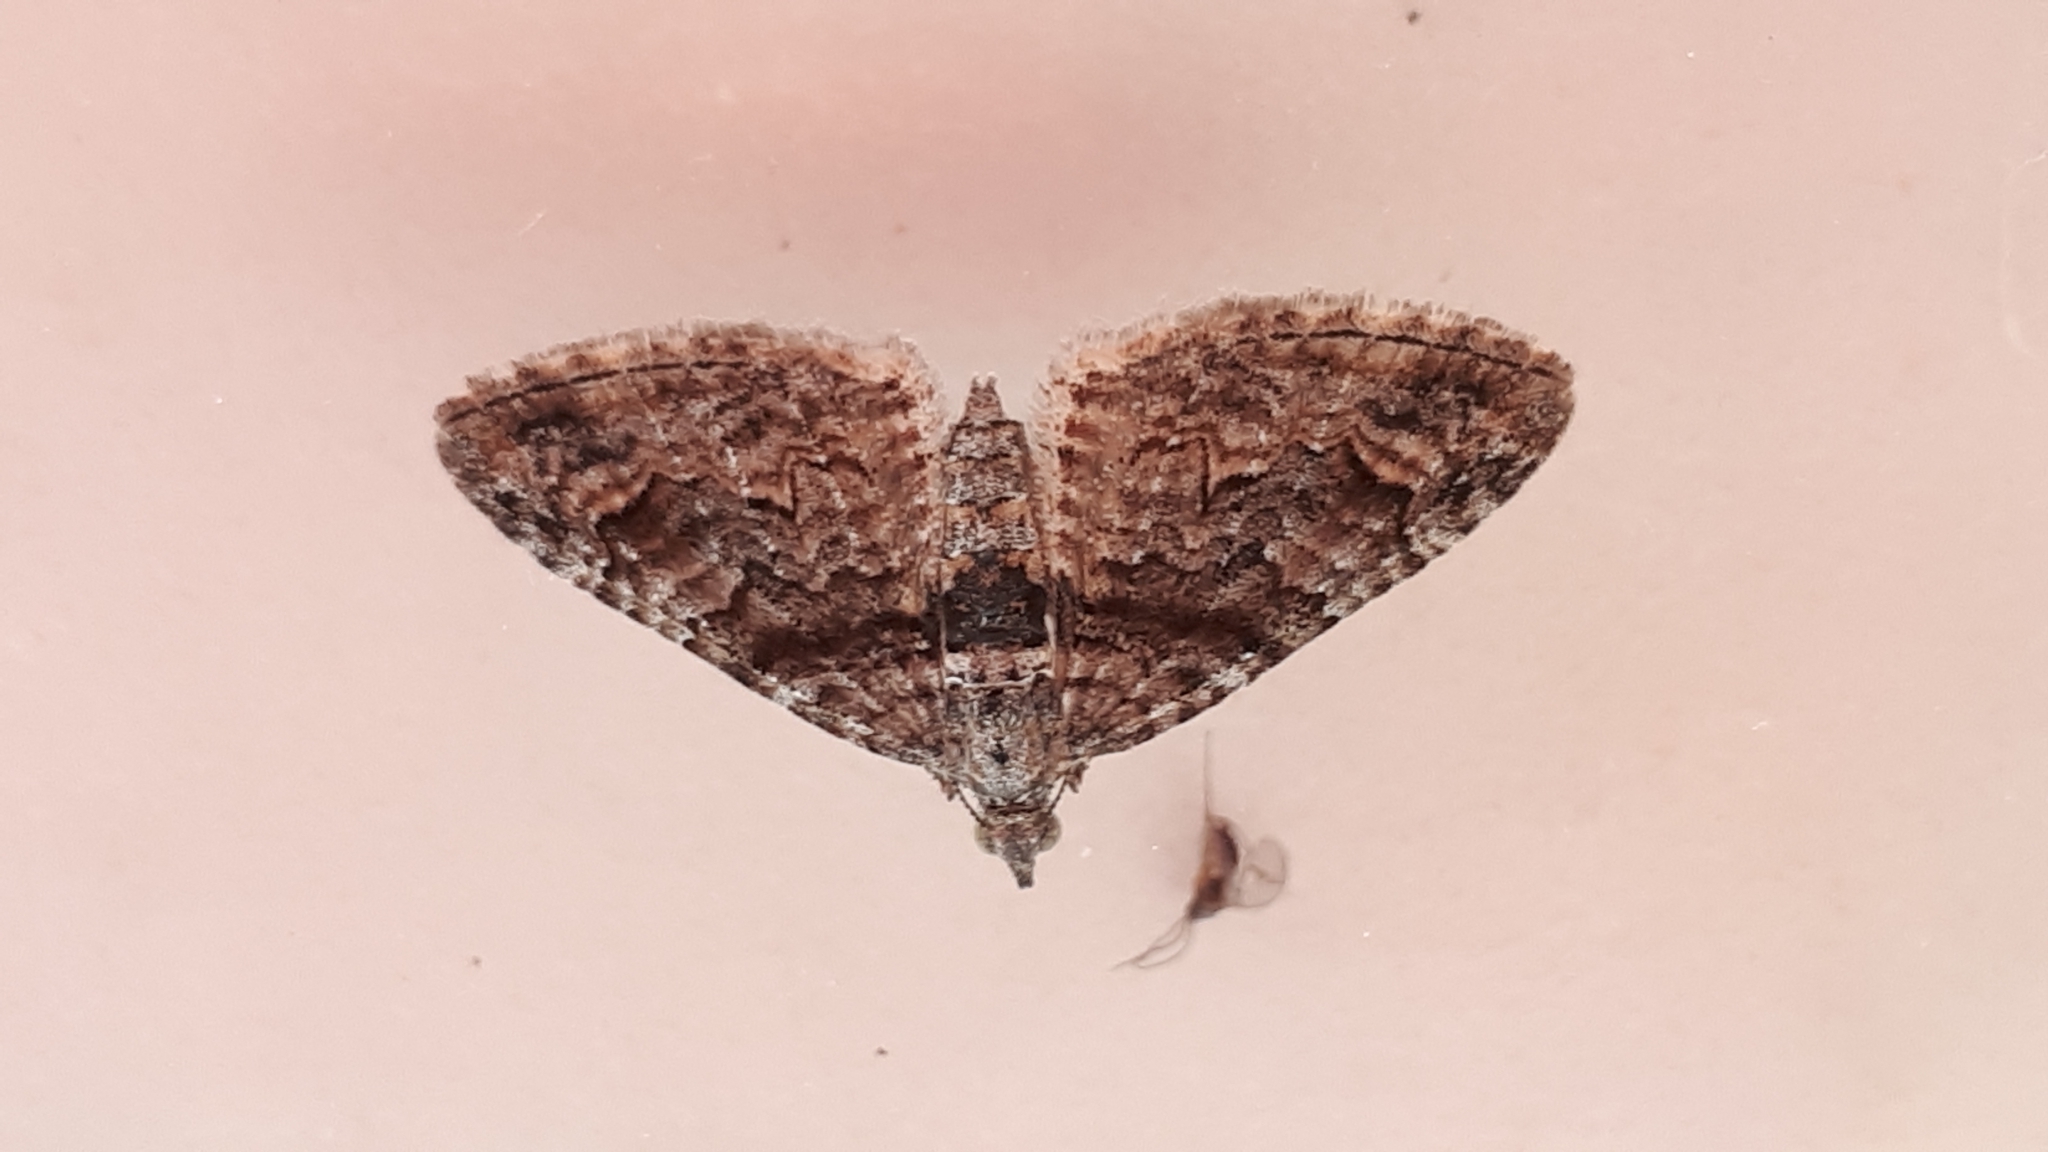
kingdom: Animalia
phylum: Arthropoda
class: Insecta
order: Lepidoptera
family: Geometridae
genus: Phrissogonus
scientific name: Phrissogonus laticostata
